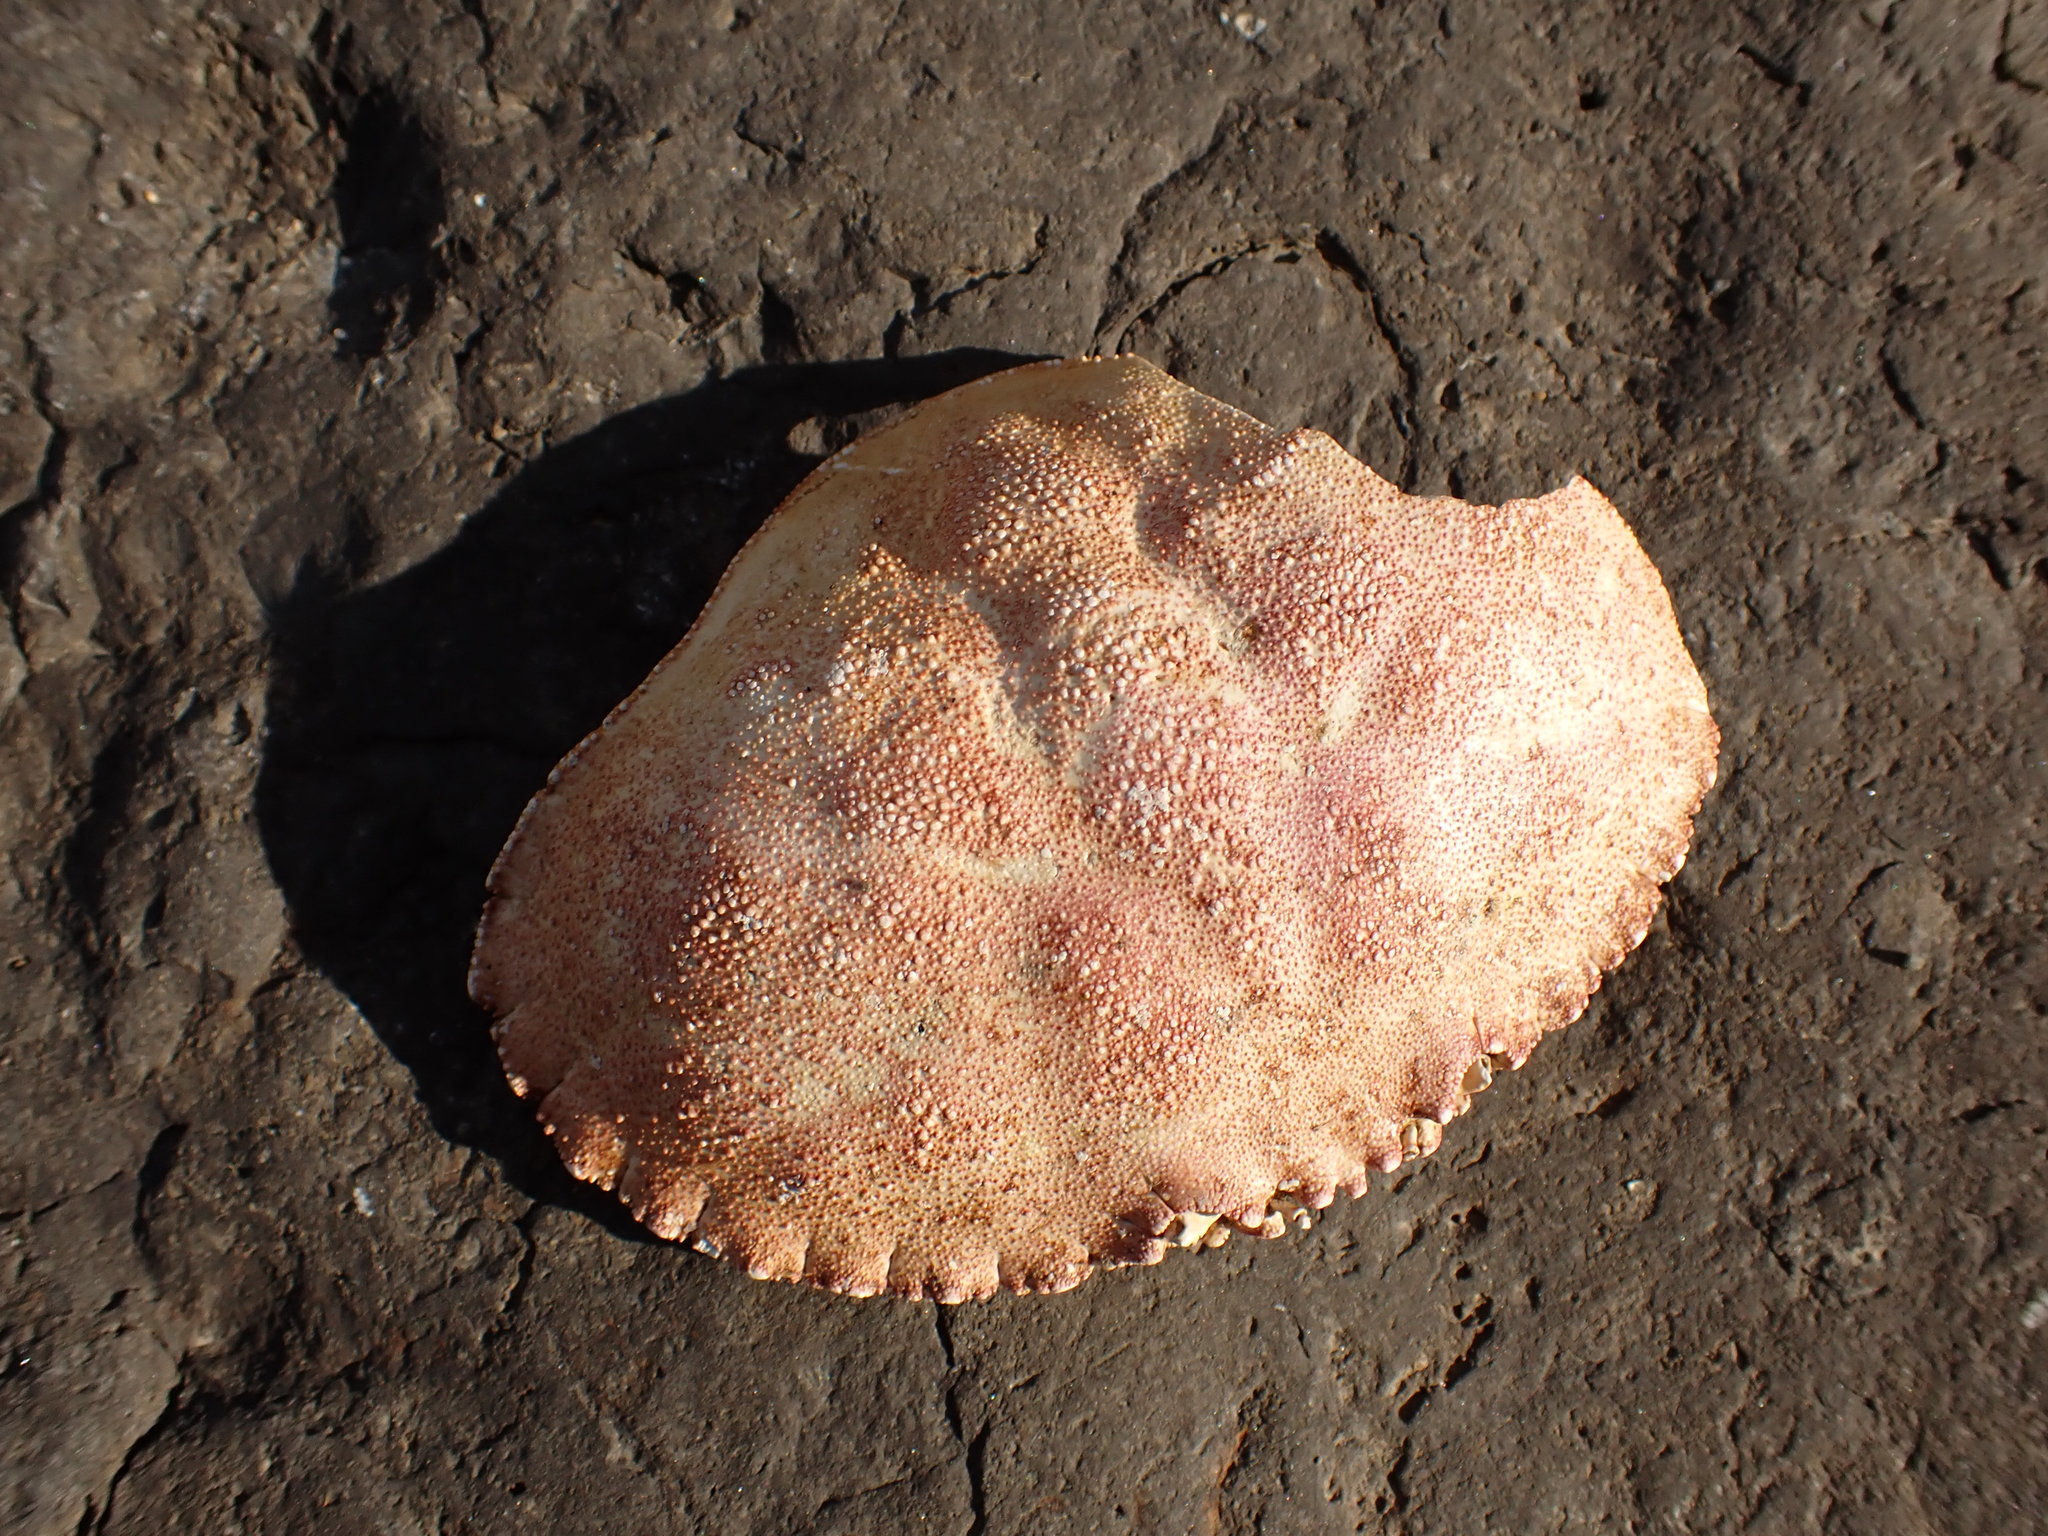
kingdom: Animalia
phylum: Arthropoda
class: Malacostraca
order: Decapoda
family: Cancridae
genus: Cancer
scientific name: Cancer borealis
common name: Jonah crab
